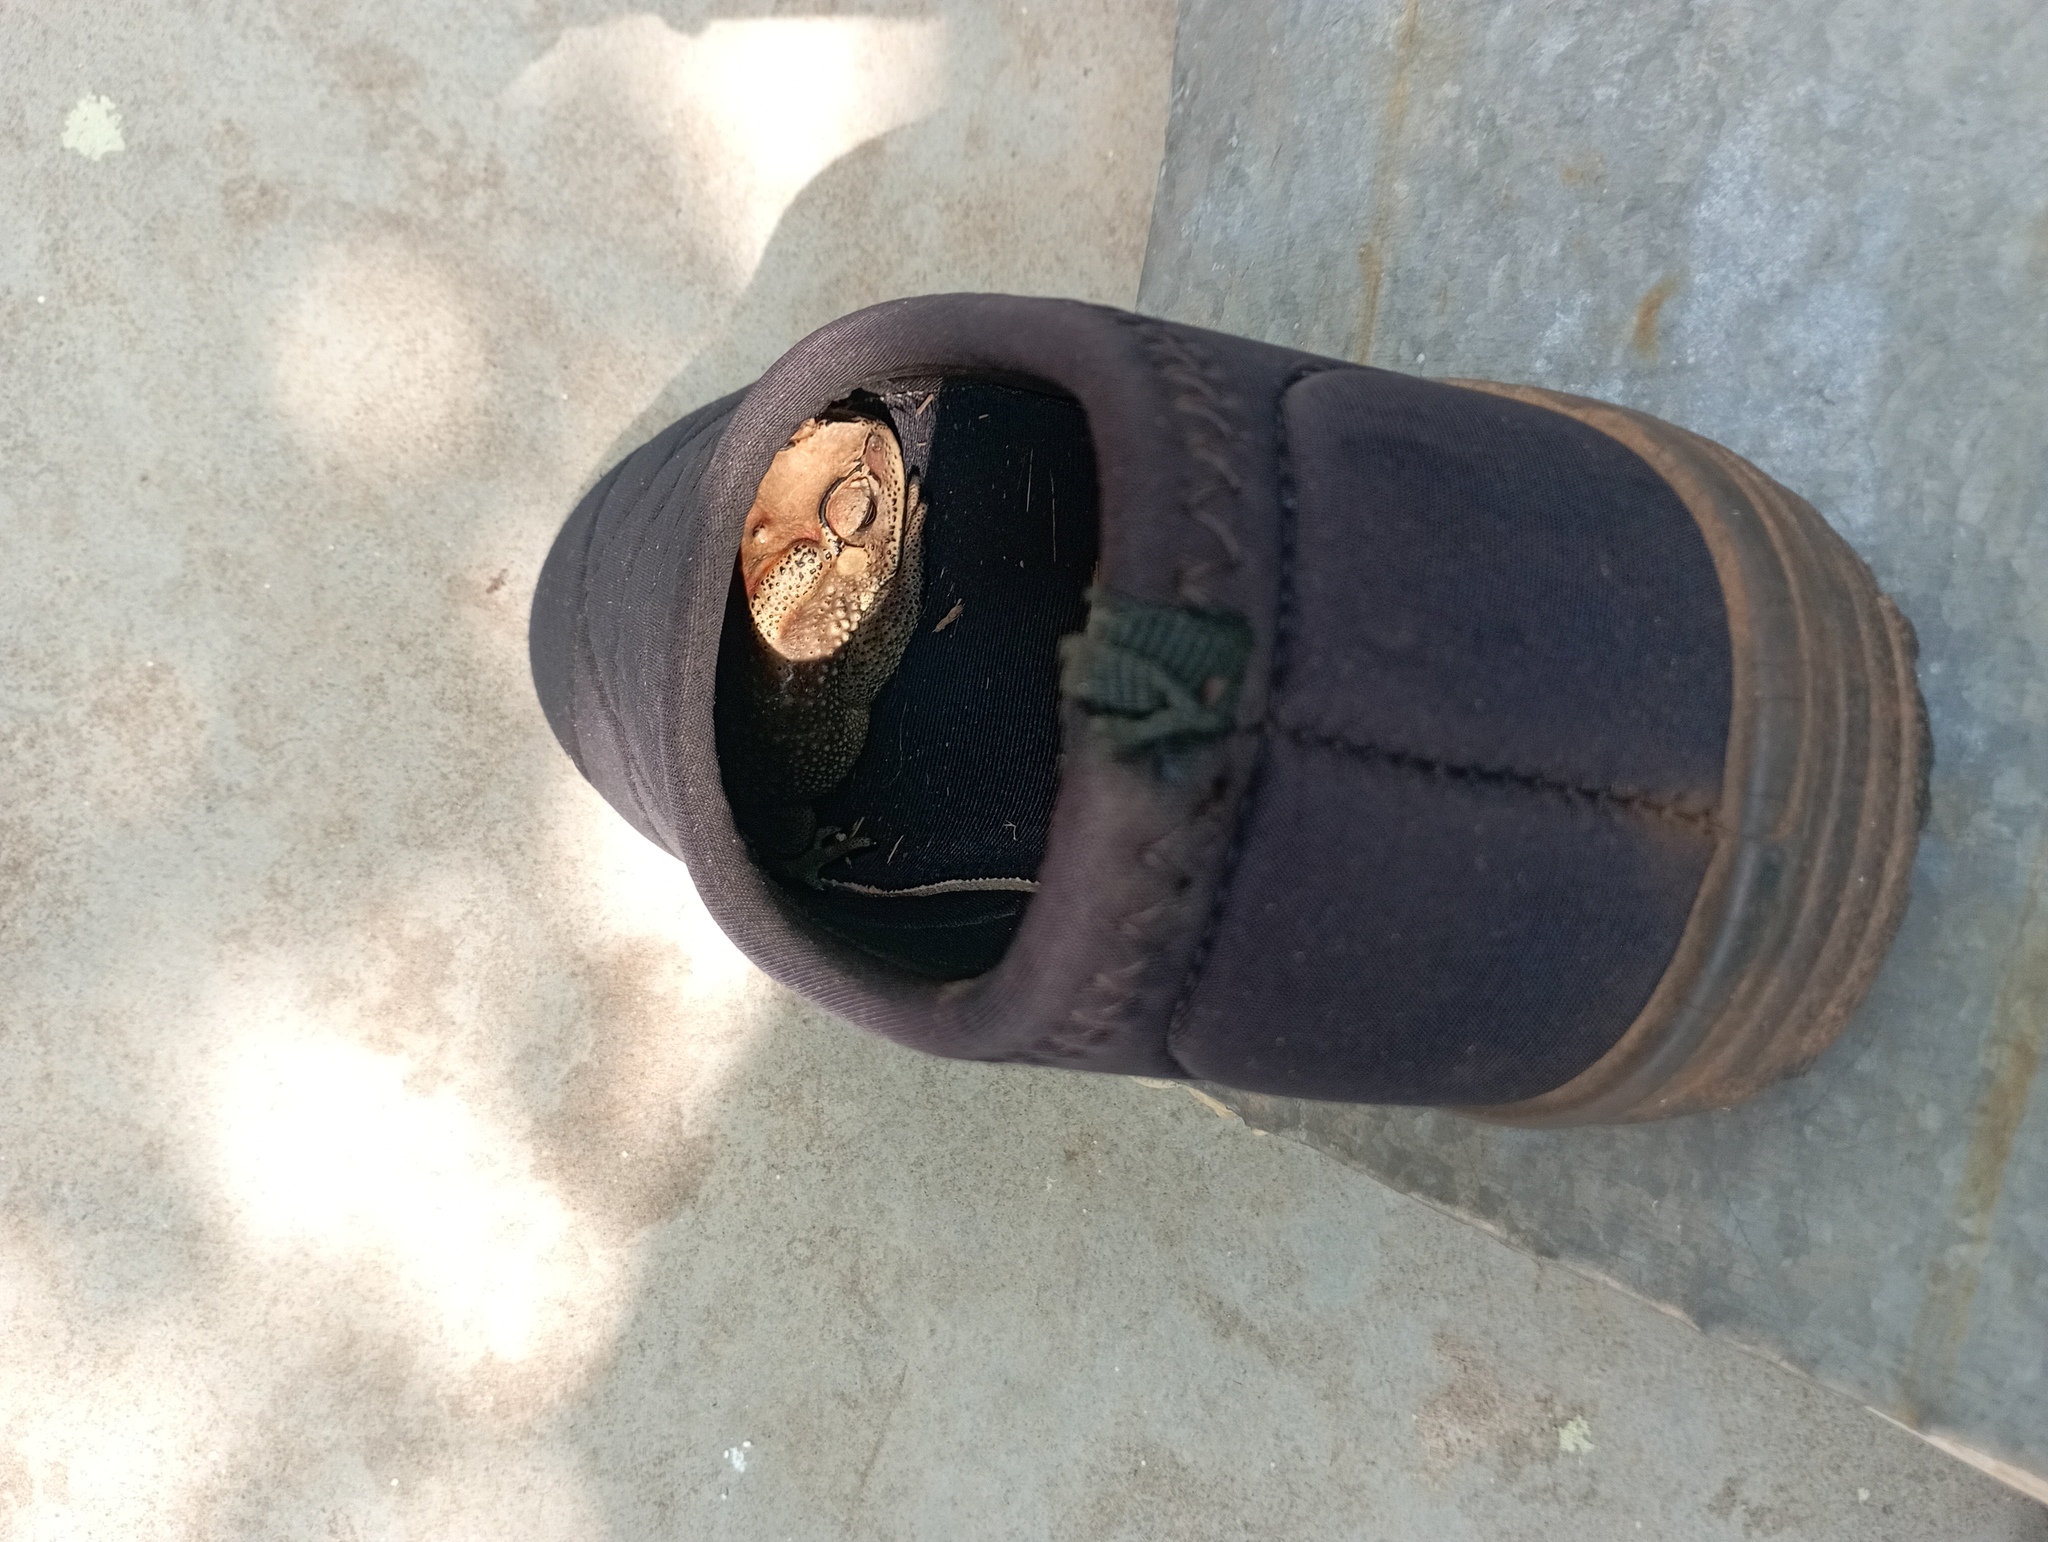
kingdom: Animalia
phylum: Chordata
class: Amphibia
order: Anura
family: Bufonidae
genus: Duttaphrynus
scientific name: Duttaphrynus melanostictus
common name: Common sunda toad
